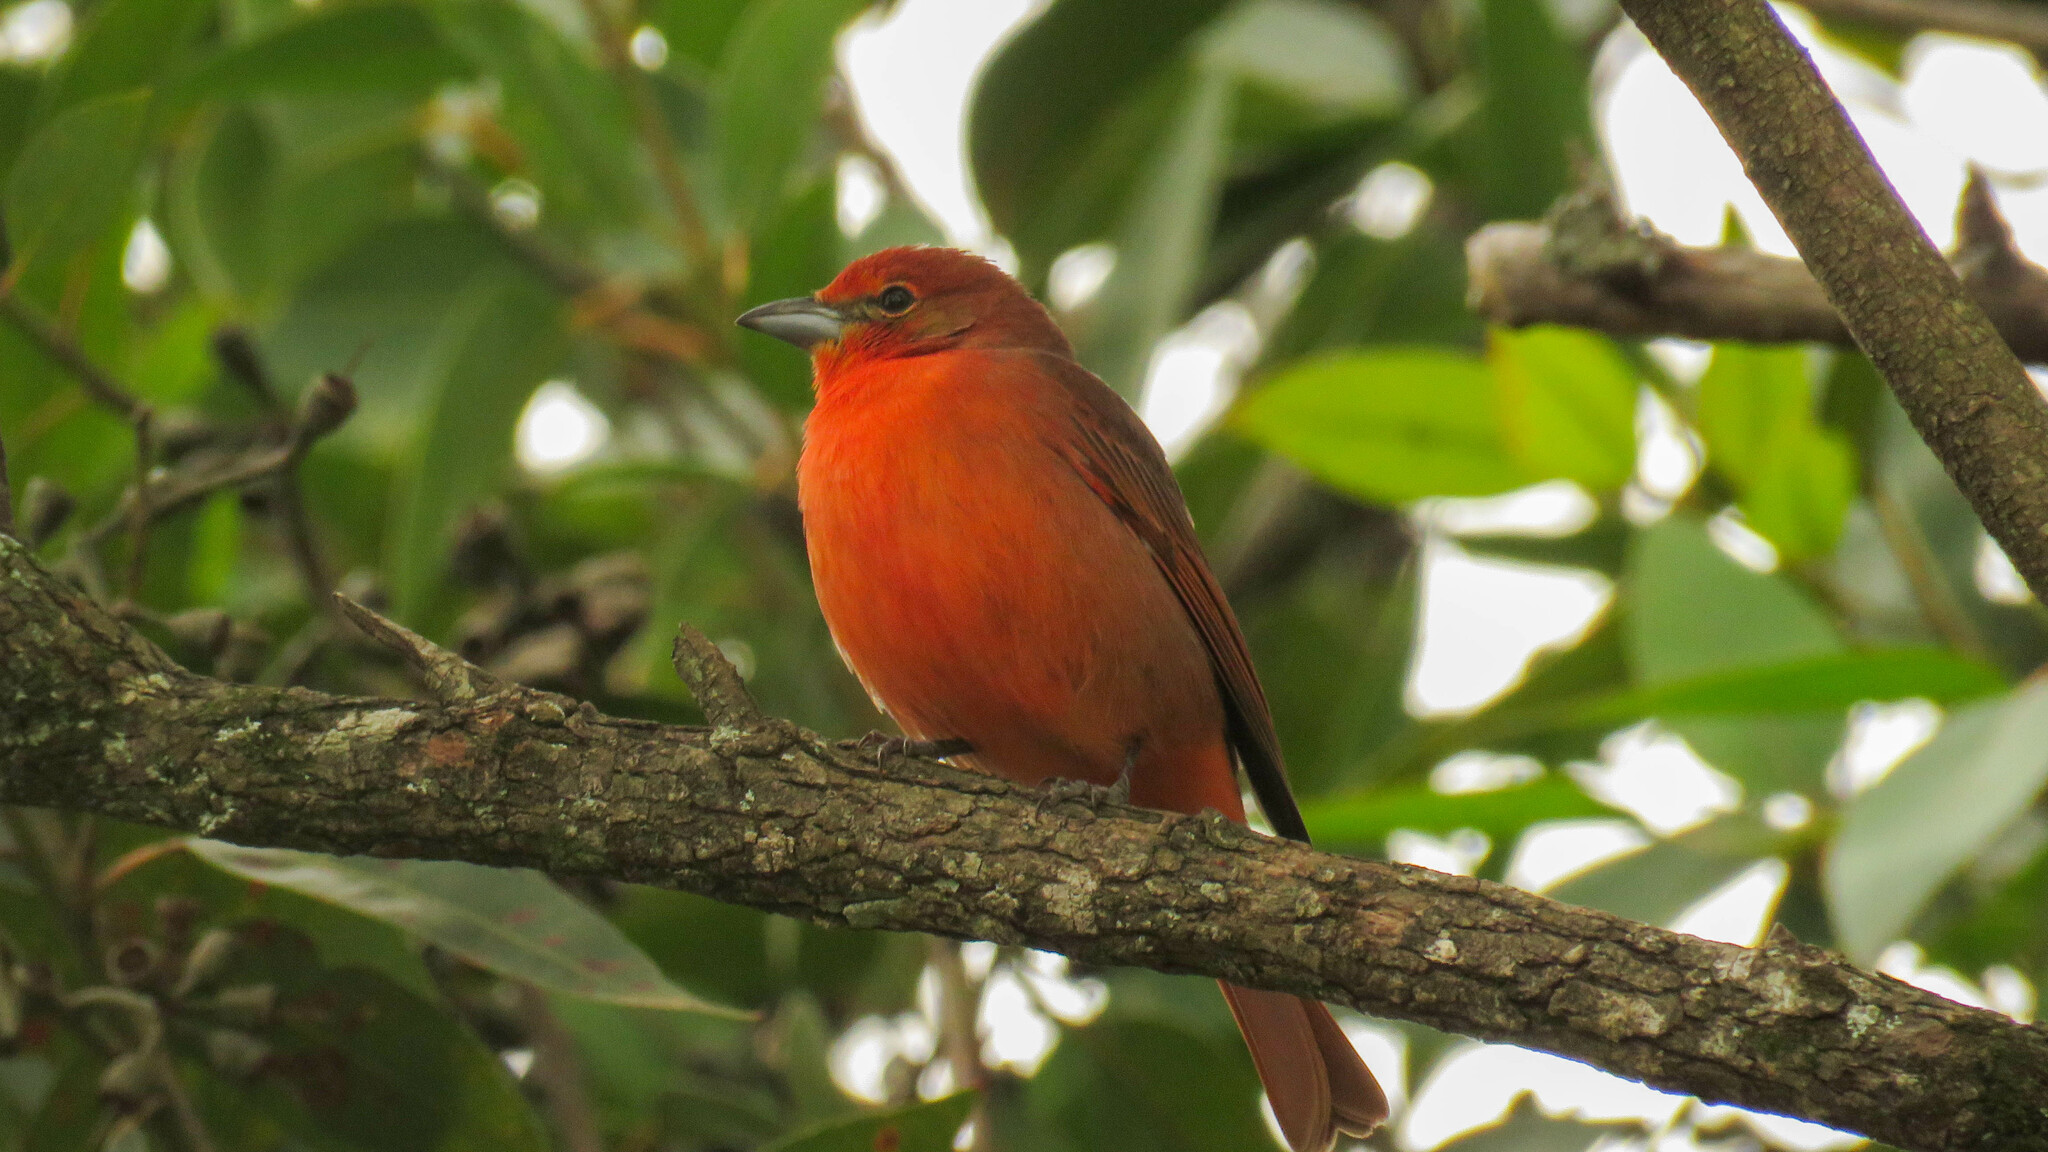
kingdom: Animalia
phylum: Chordata
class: Aves
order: Passeriformes
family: Cardinalidae
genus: Piranga
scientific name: Piranga flava
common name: Red tanager
